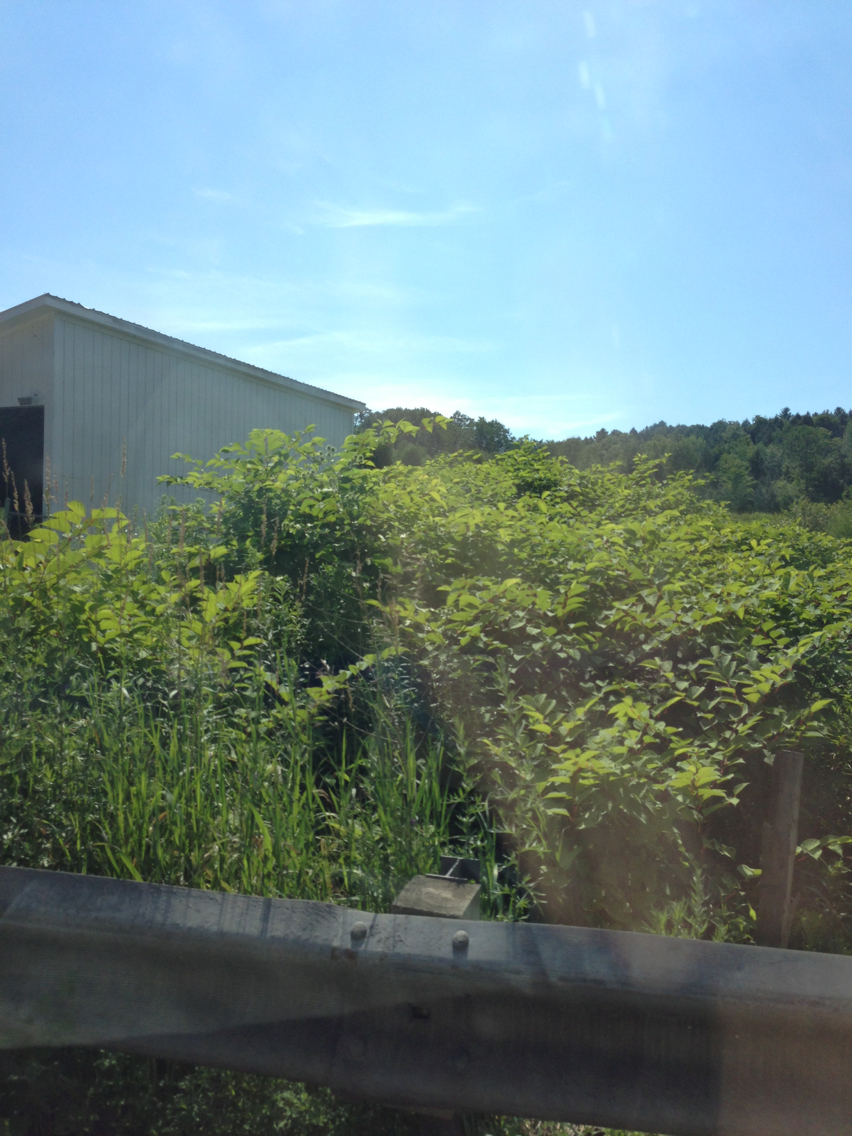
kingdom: Plantae
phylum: Tracheophyta
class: Magnoliopsida
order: Caryophyllales
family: Polygonaceae
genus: Reynoutria
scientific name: Reynoutria japonica
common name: Japanese knotweed
